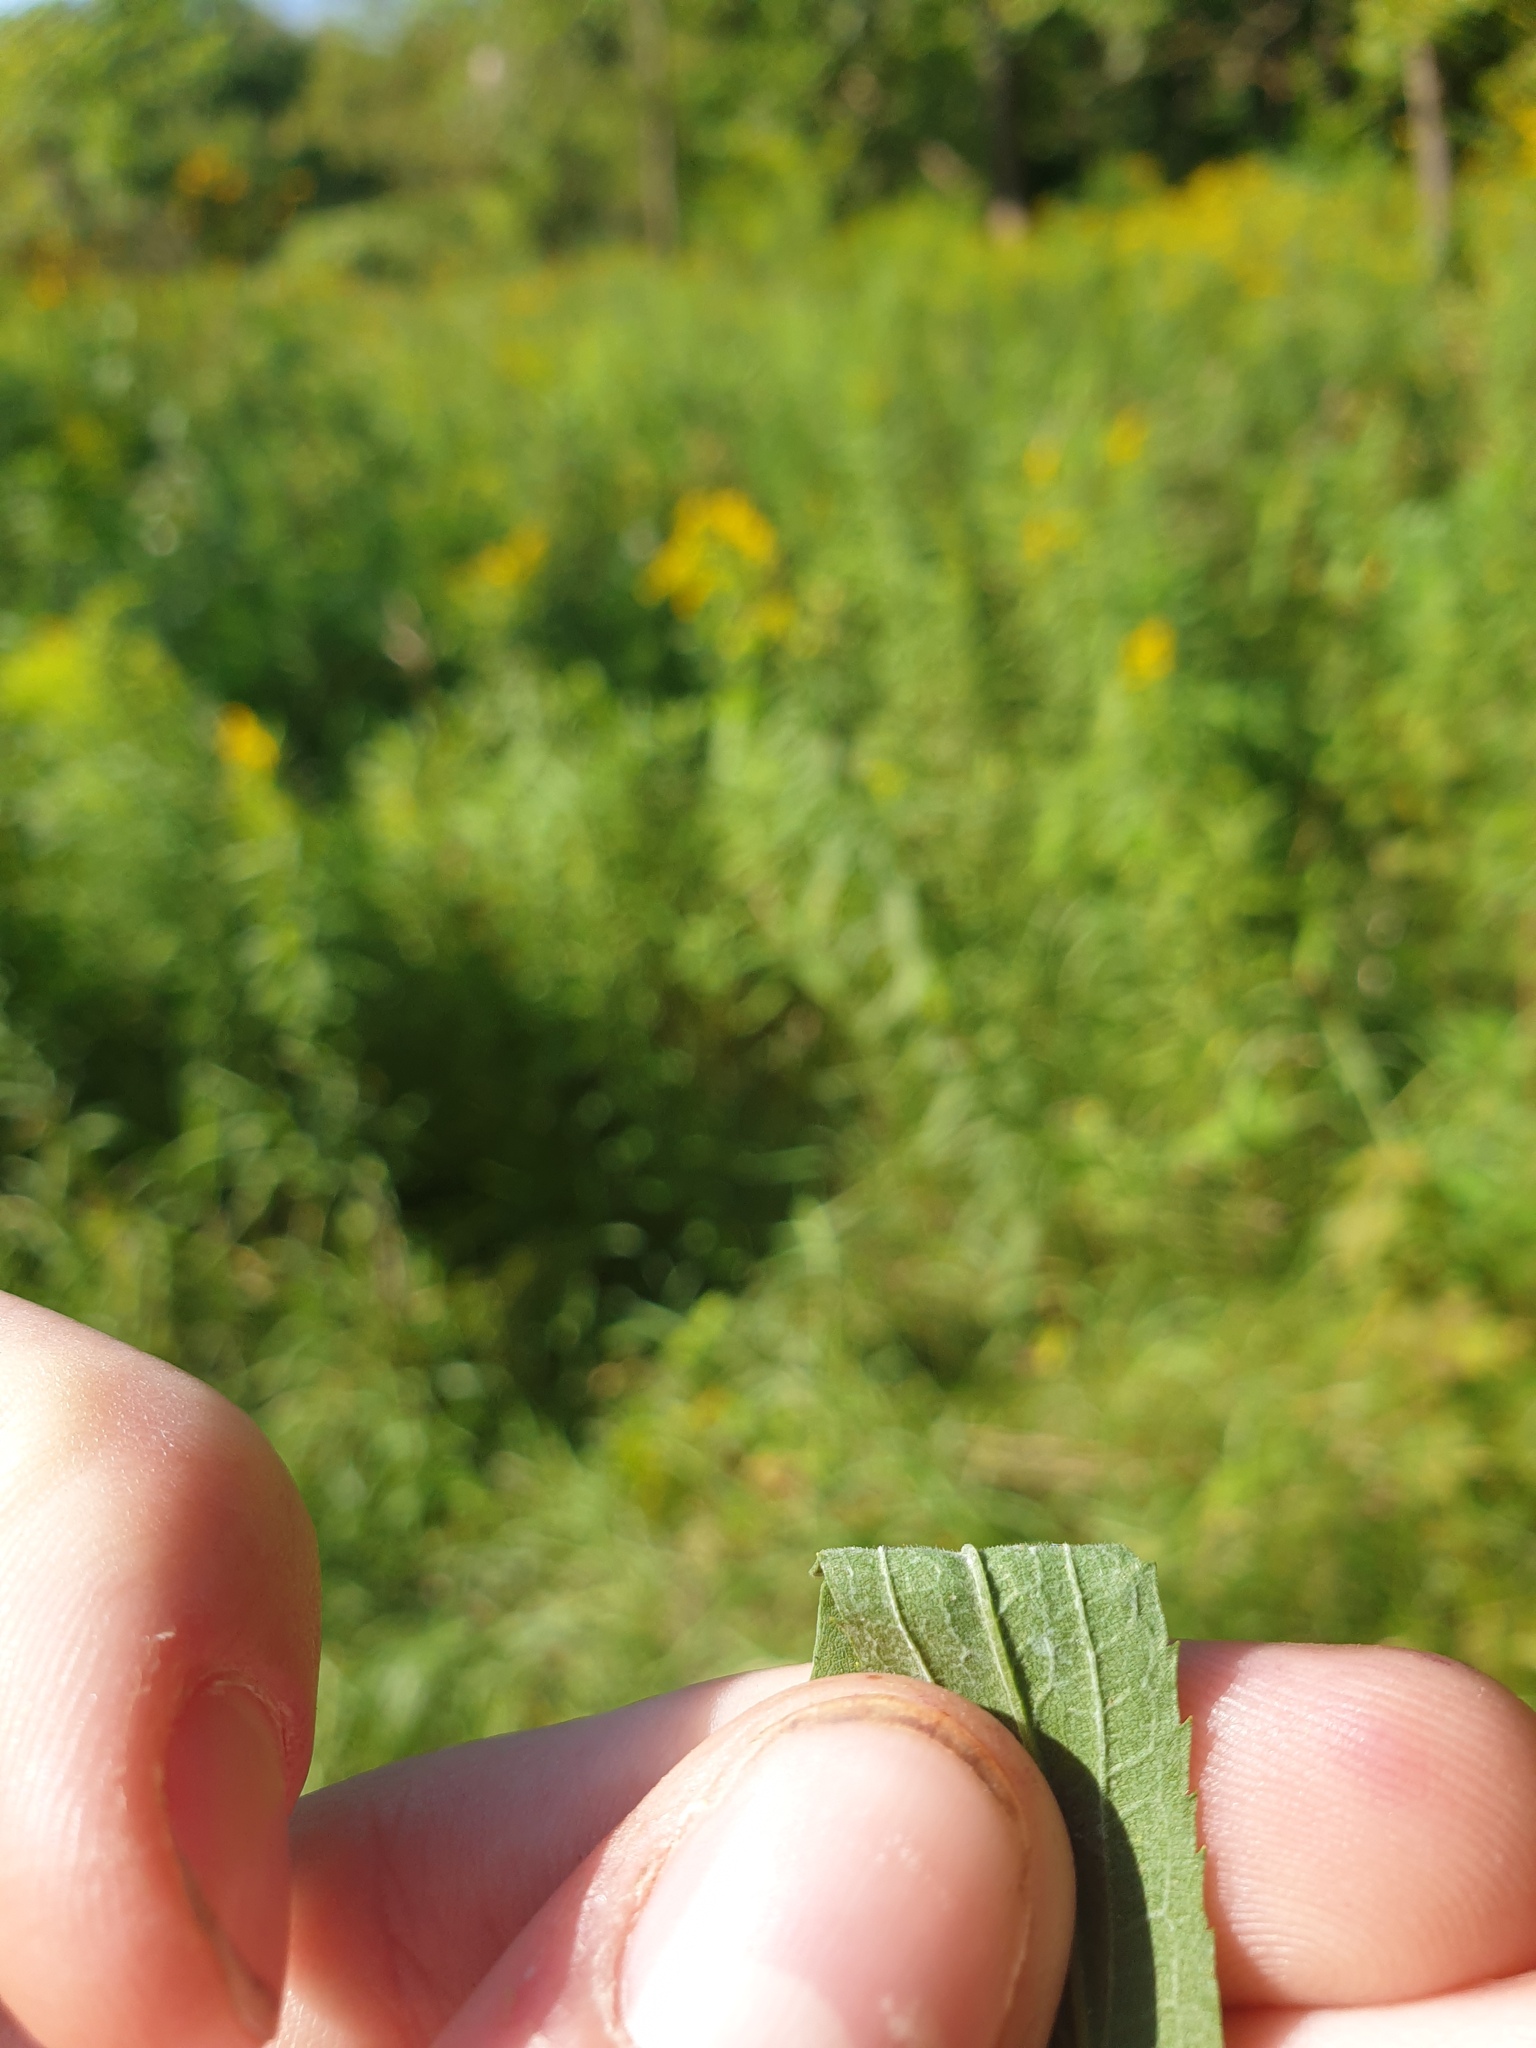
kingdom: Plantae
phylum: Tracheophyta
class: Magnoliopsida
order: Asterales
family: Asteraceae
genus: Solidago
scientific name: Solidago altissima
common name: Late goldenrod
